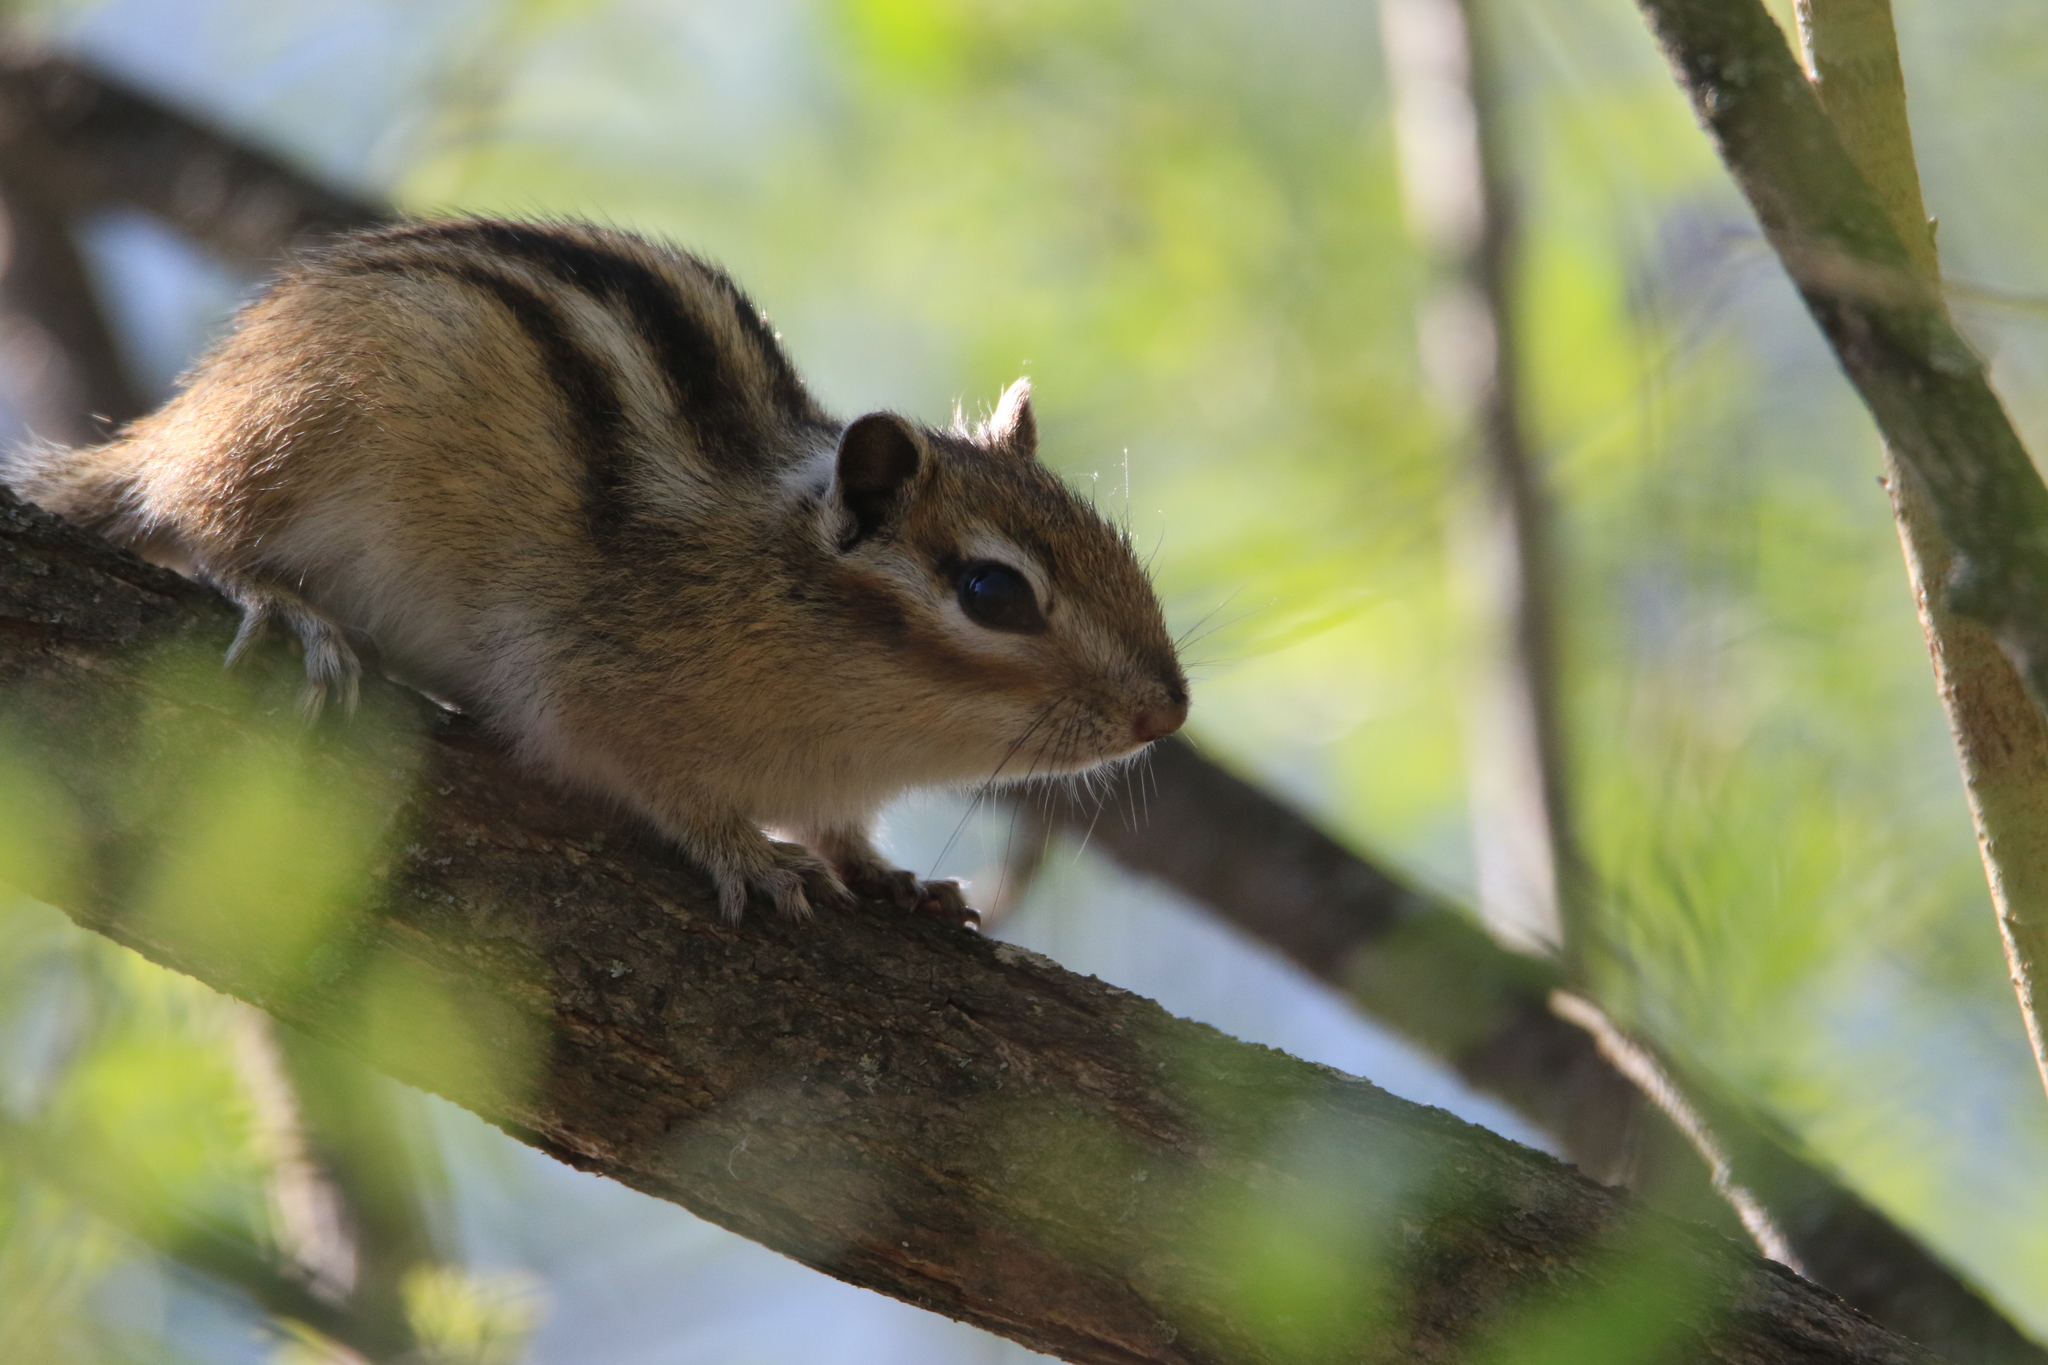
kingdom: Animalia
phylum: Chordata
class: Mammalia
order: Rodentia
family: Sciuridae
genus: Tamias
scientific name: Tamias sibiricus
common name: Siberian chipmunk
